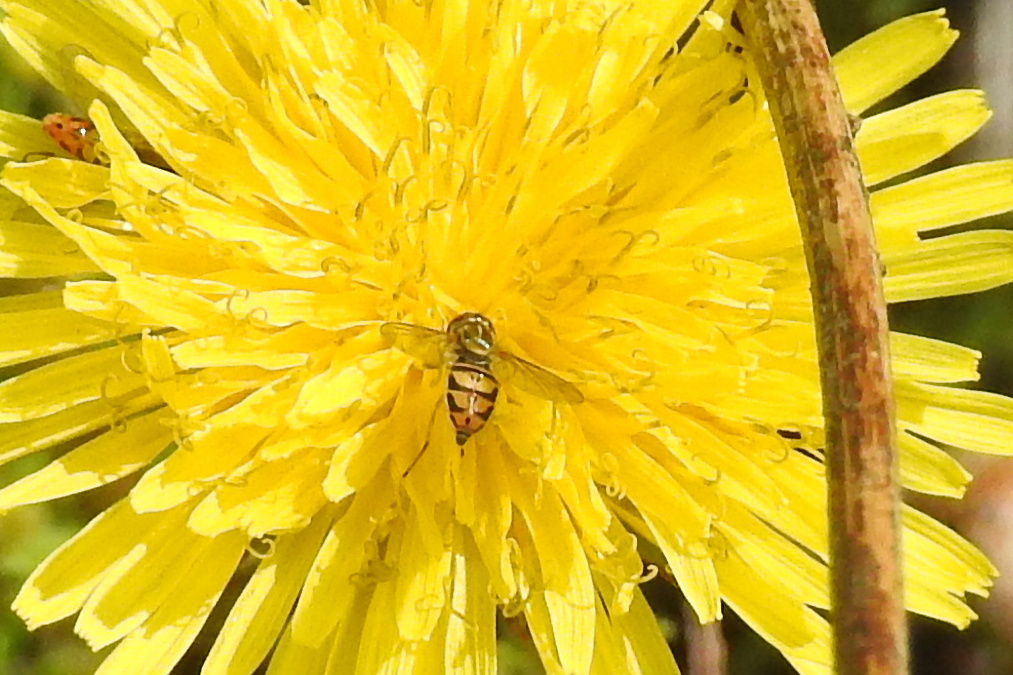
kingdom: Animalia
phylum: Arthropoda
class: Insecta
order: Diptera
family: Syrphidae
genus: Toxomerus
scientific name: Toxomerus marginatus
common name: Syrphid fly
